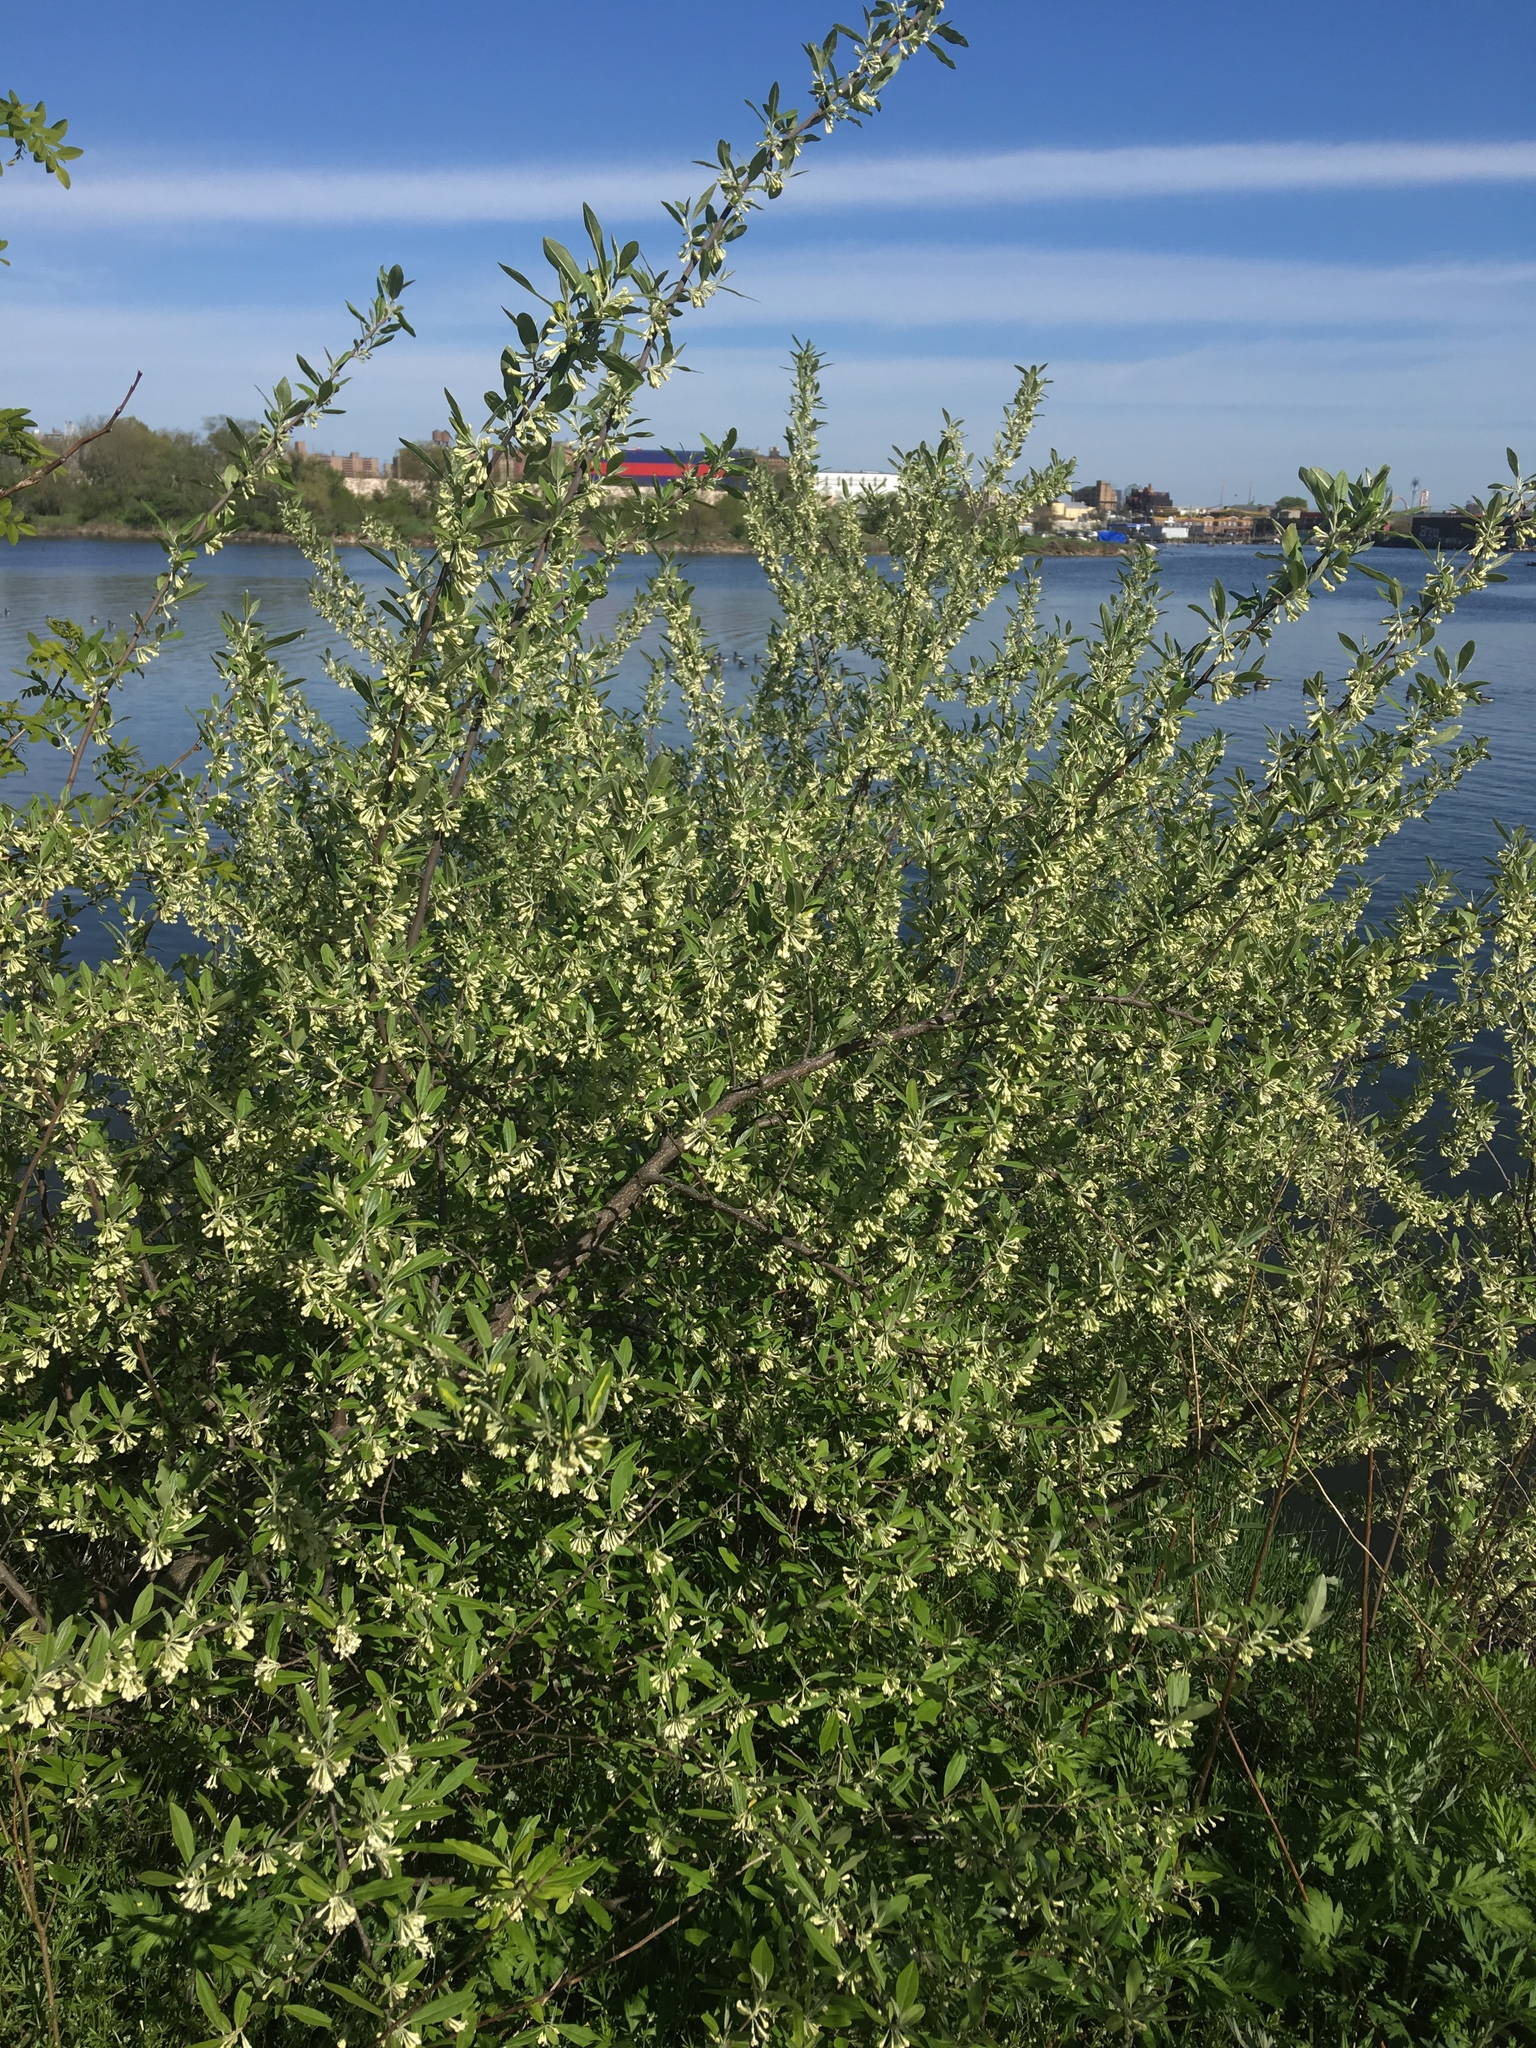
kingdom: Plantae
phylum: Tracheophyta
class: Magnoliopsida
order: Rosales
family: Elaeagnaceae
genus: Elaeagnus
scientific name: Elaeagnus umbellata
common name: Autumn olive
